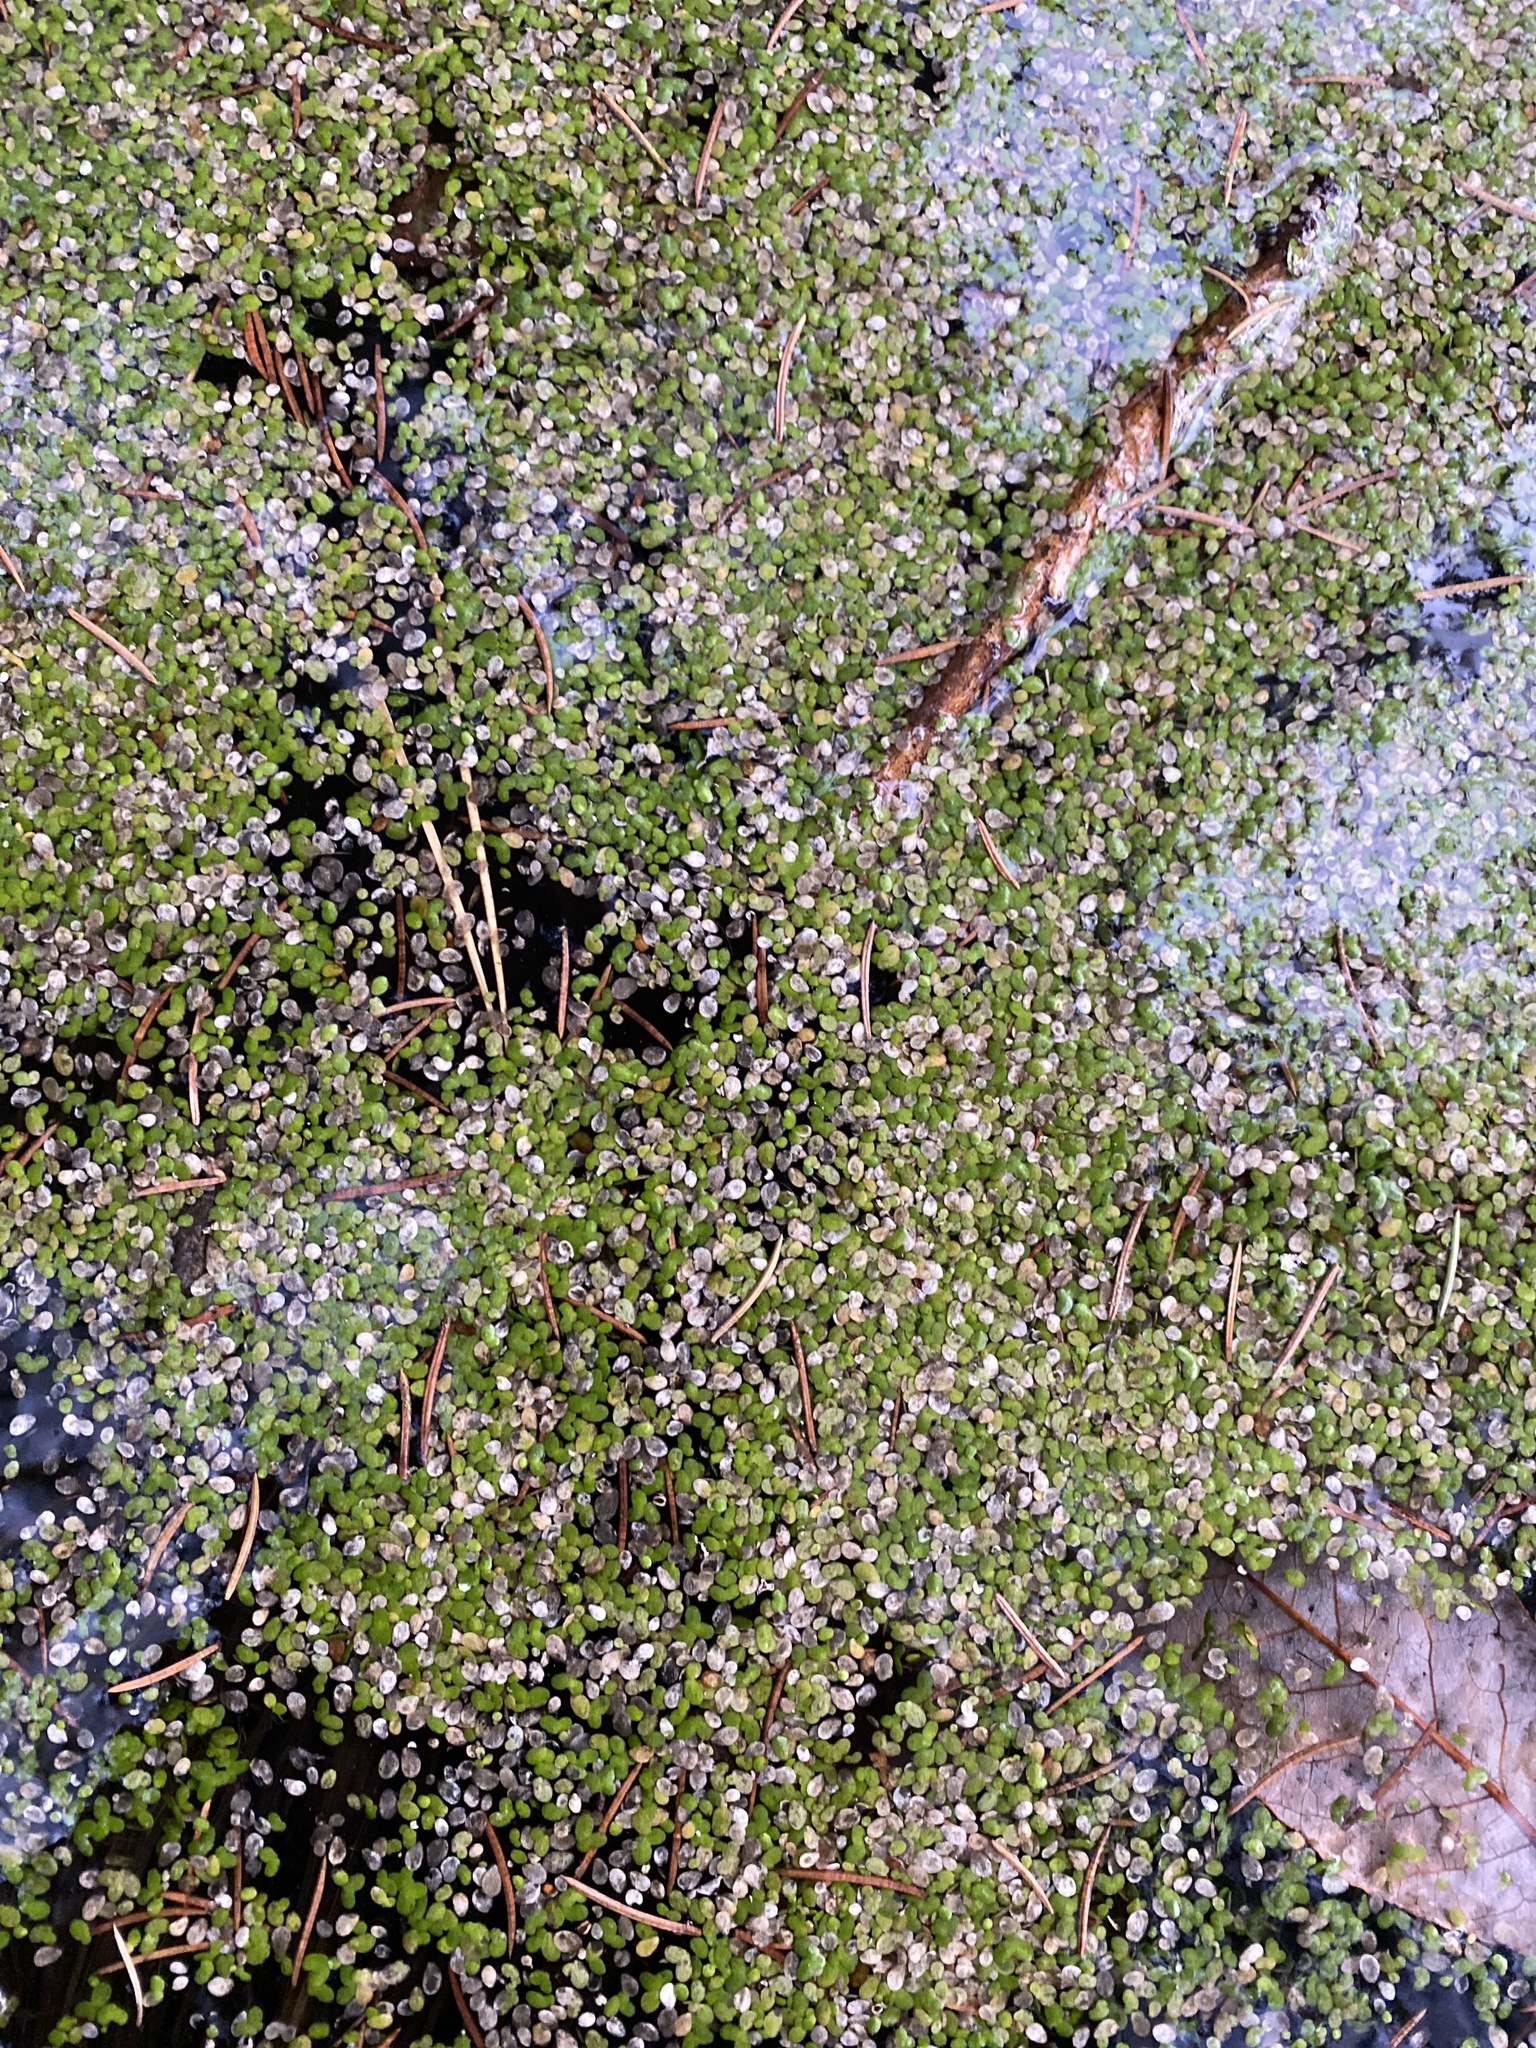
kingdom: Plantae
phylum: Tracheophyta
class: Liliopsida
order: Alismatales
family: Araceae
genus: Lemna
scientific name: Lemna
